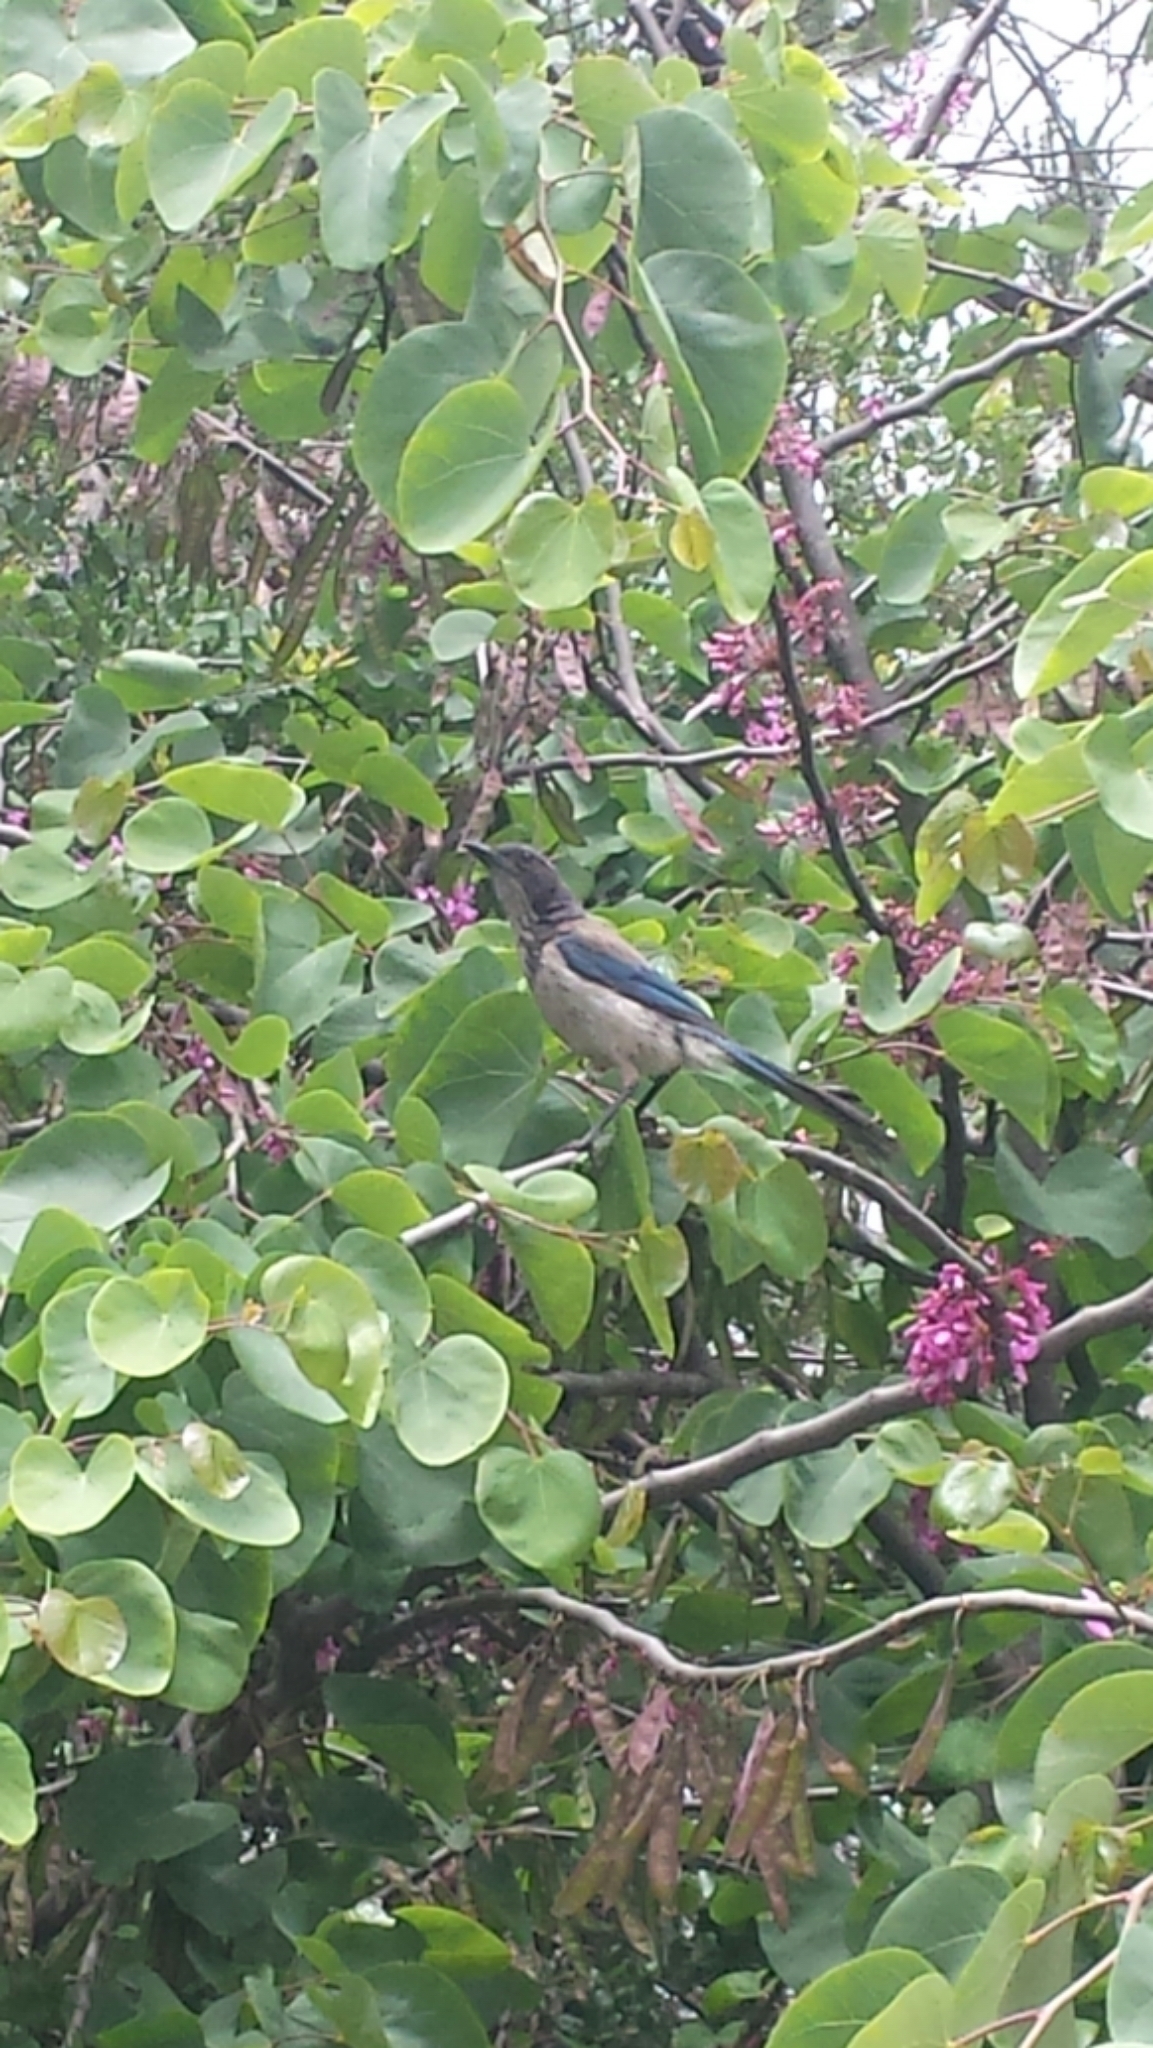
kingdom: Animalia
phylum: Chordata
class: Aves
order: Passeriformes
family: Corvidae
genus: Aphelocoma
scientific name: Aphelocoma californica
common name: California scrub-jay
